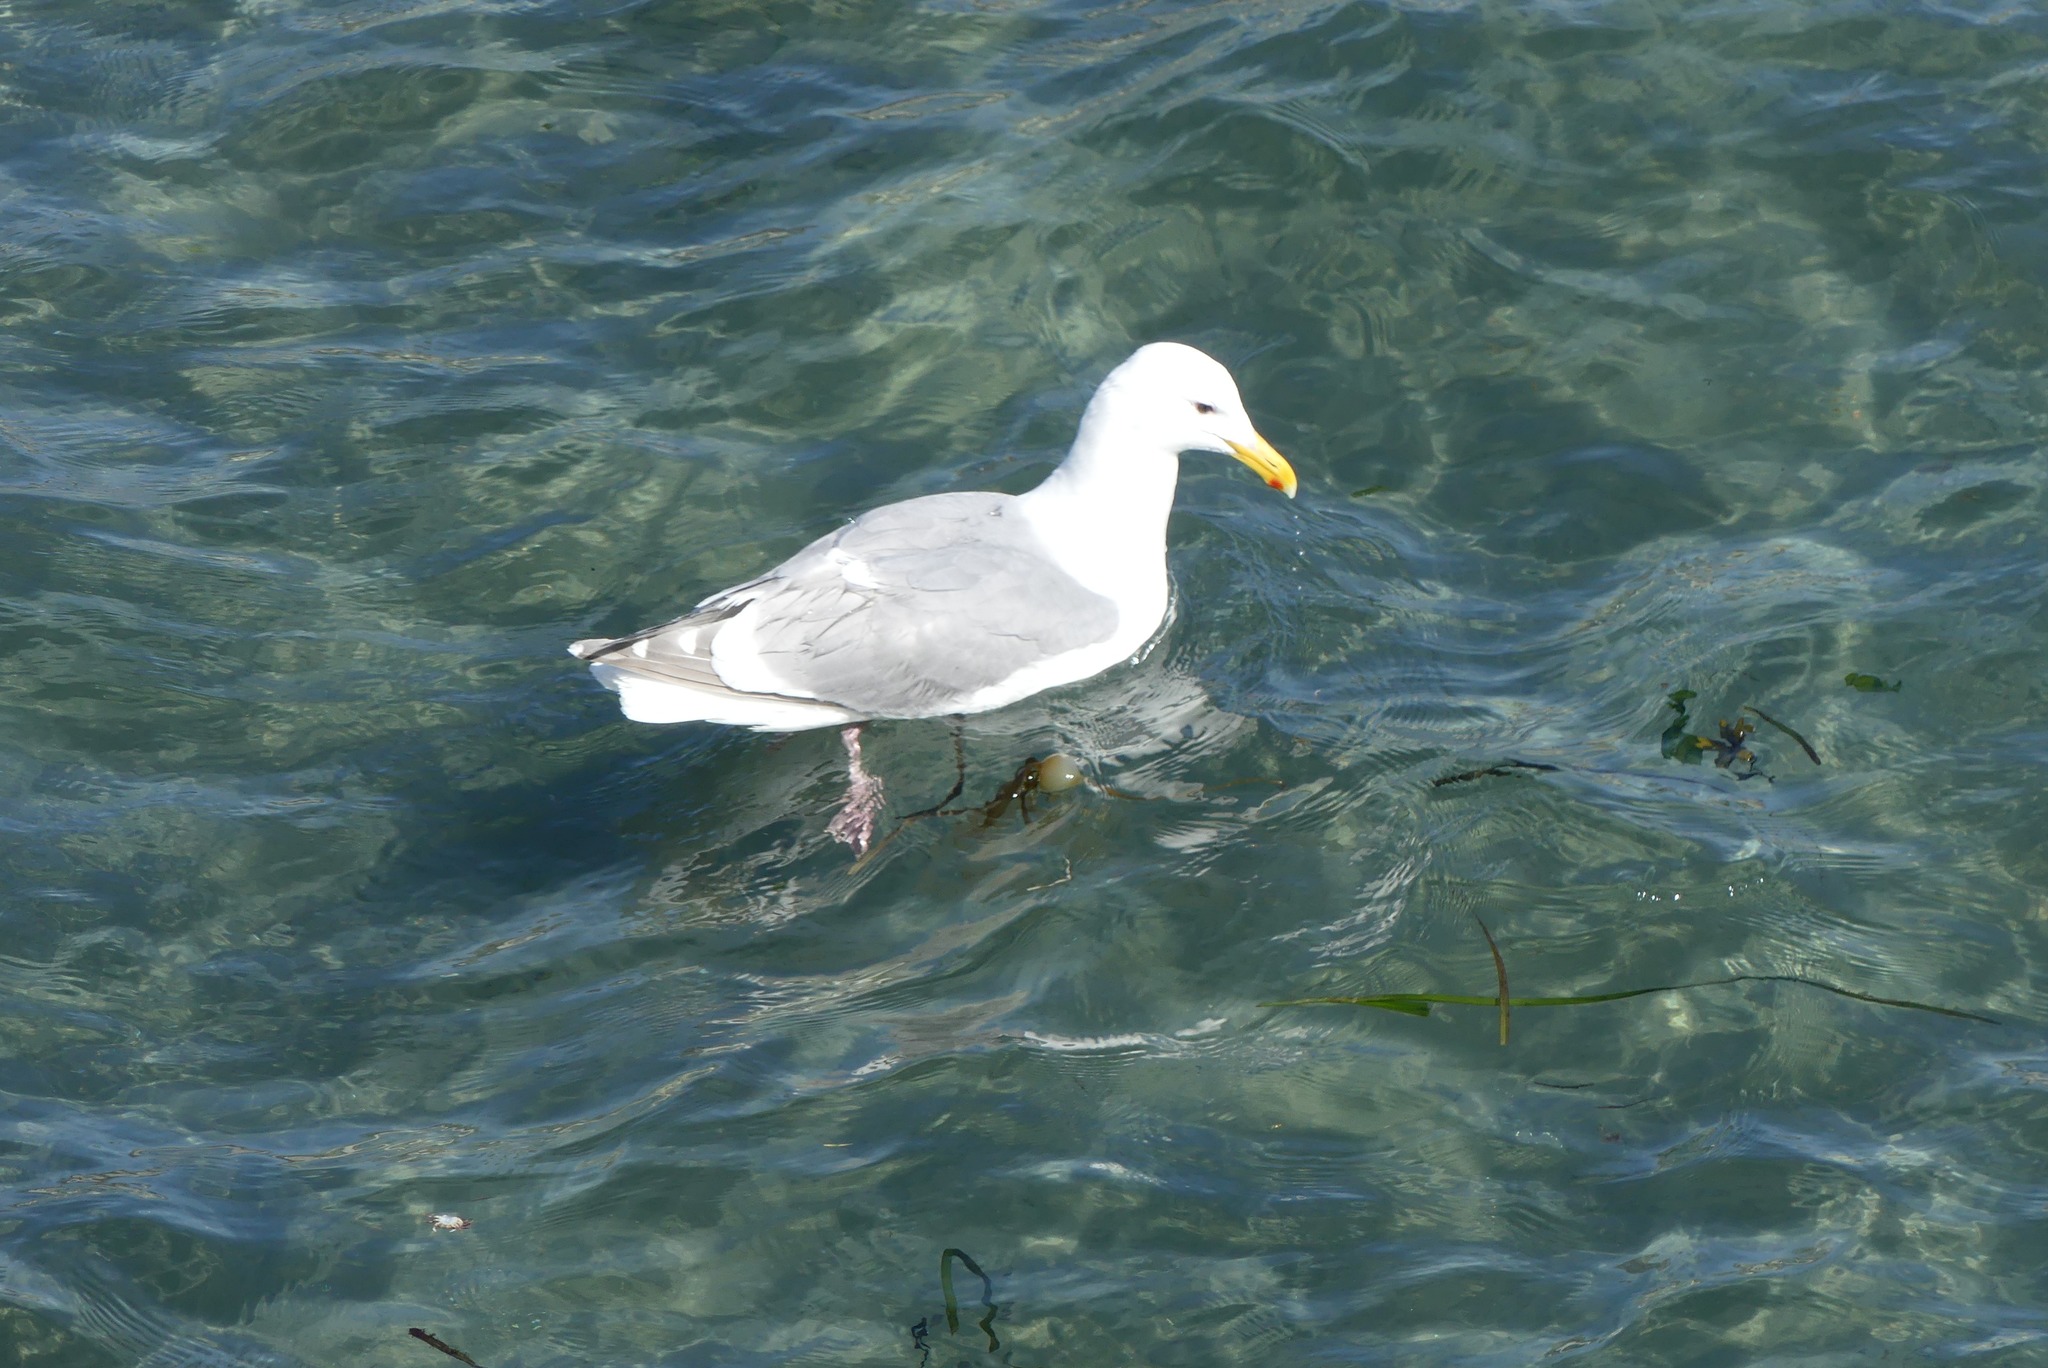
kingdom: Animalia
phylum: Chordata
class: Aves
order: Charadriiformes
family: Laridae
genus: Larus
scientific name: Larus glaucescens
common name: Glaucous-winged gull
